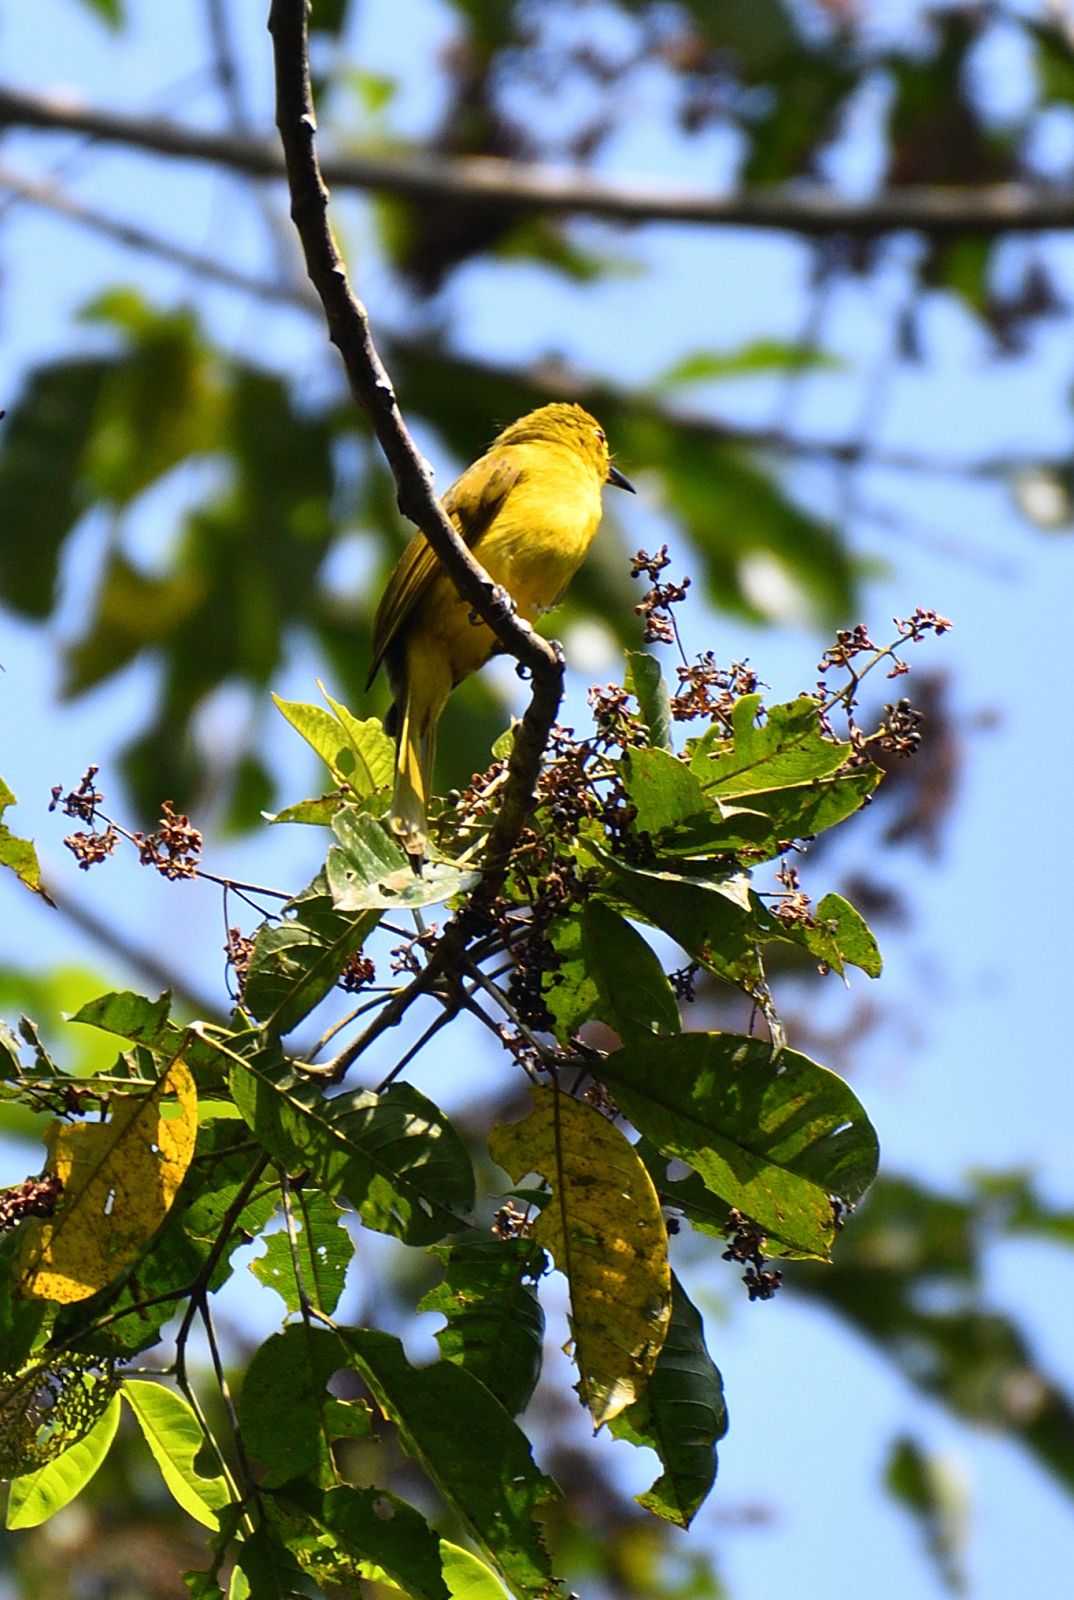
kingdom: Animalia
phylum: Chordata
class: Aves
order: Passeriformes
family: Pycnonotidae
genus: Acritillas
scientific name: Acritillas indica
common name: Yellow-browed bulbul
